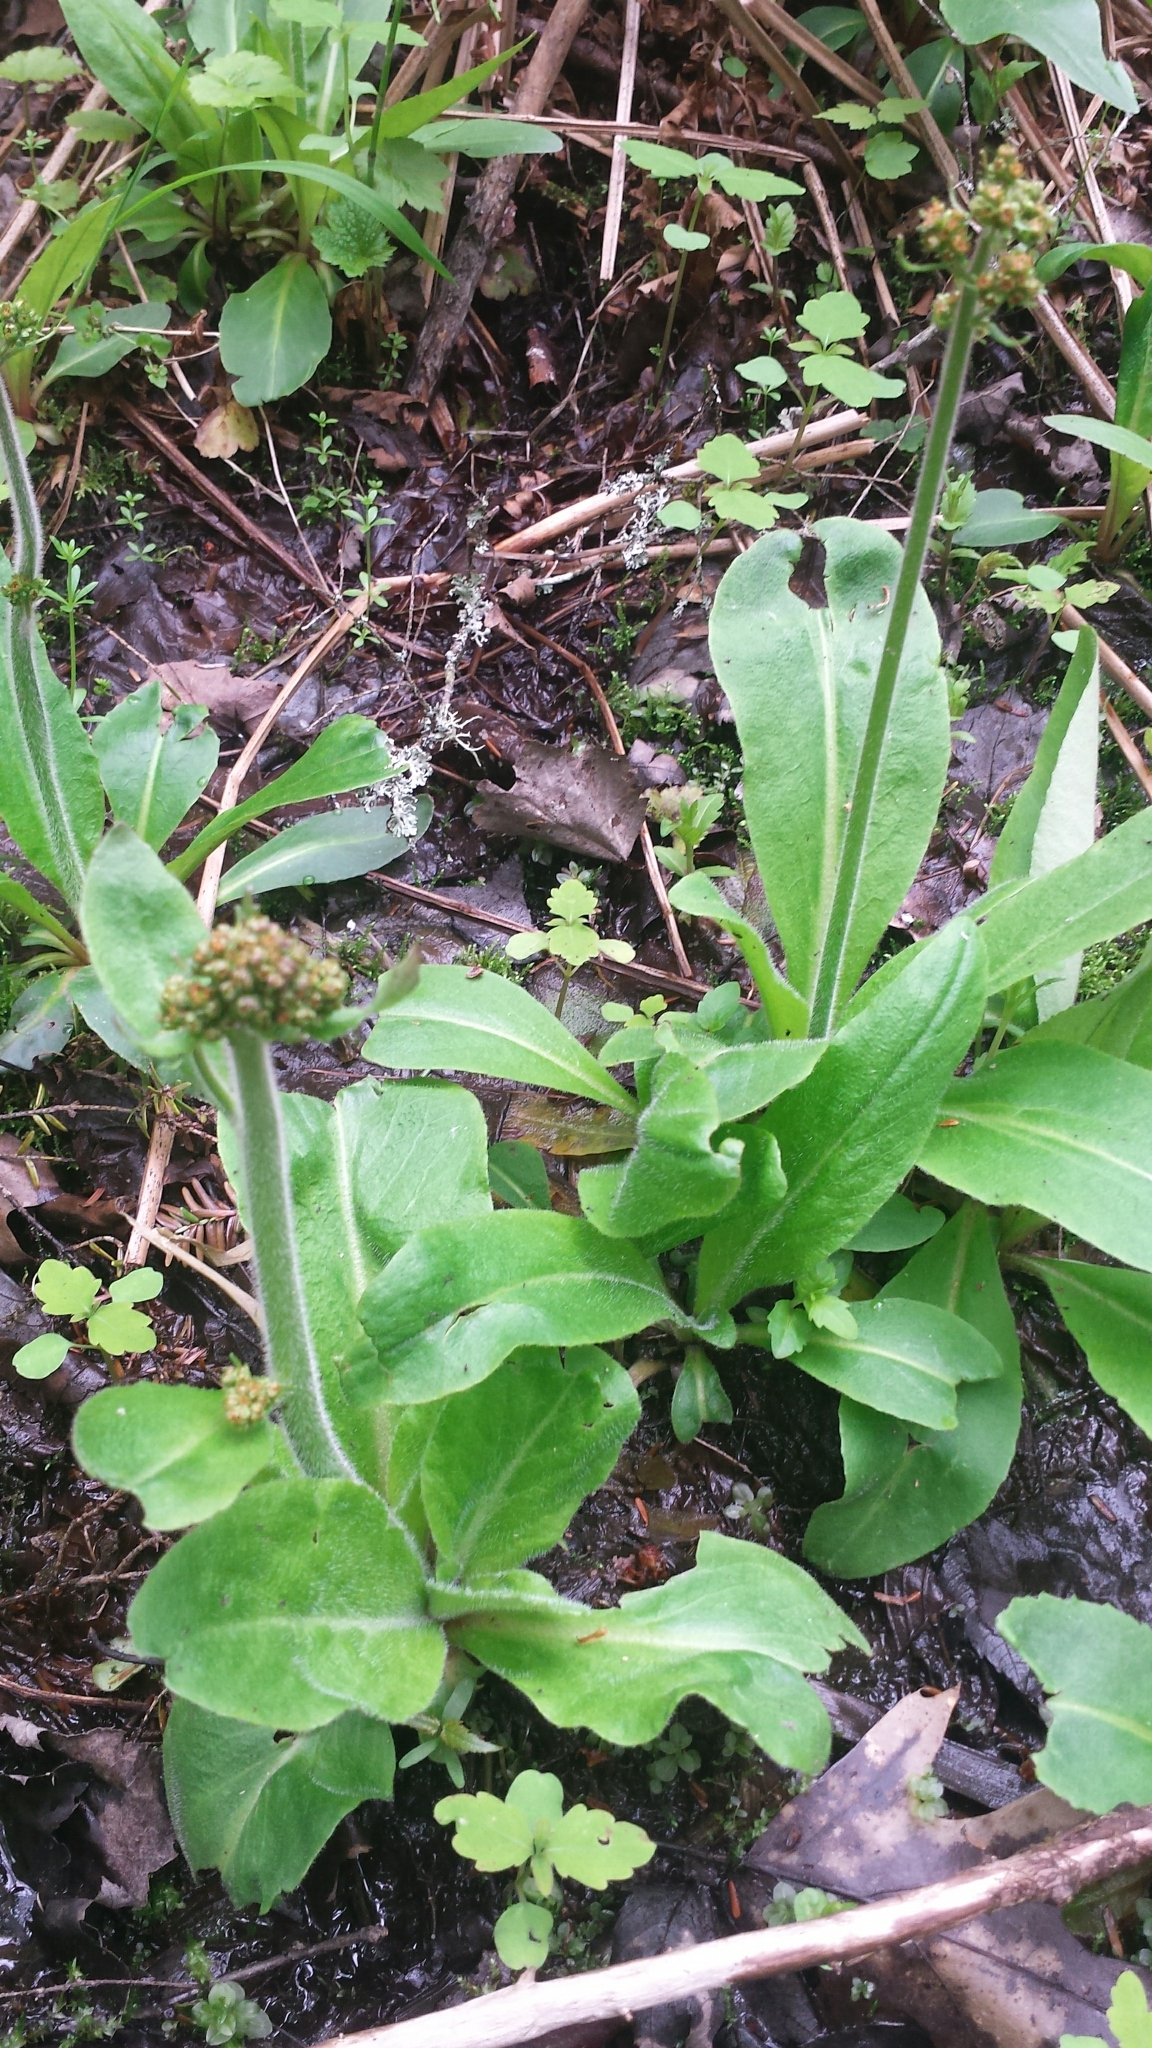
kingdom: Plantae
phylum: Tracheophyta
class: Magnoliopsida
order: Saxifragales
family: Saxifragaceae
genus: Micranthes
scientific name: Micranthes pensylvanica
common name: Marsh saxifrage
